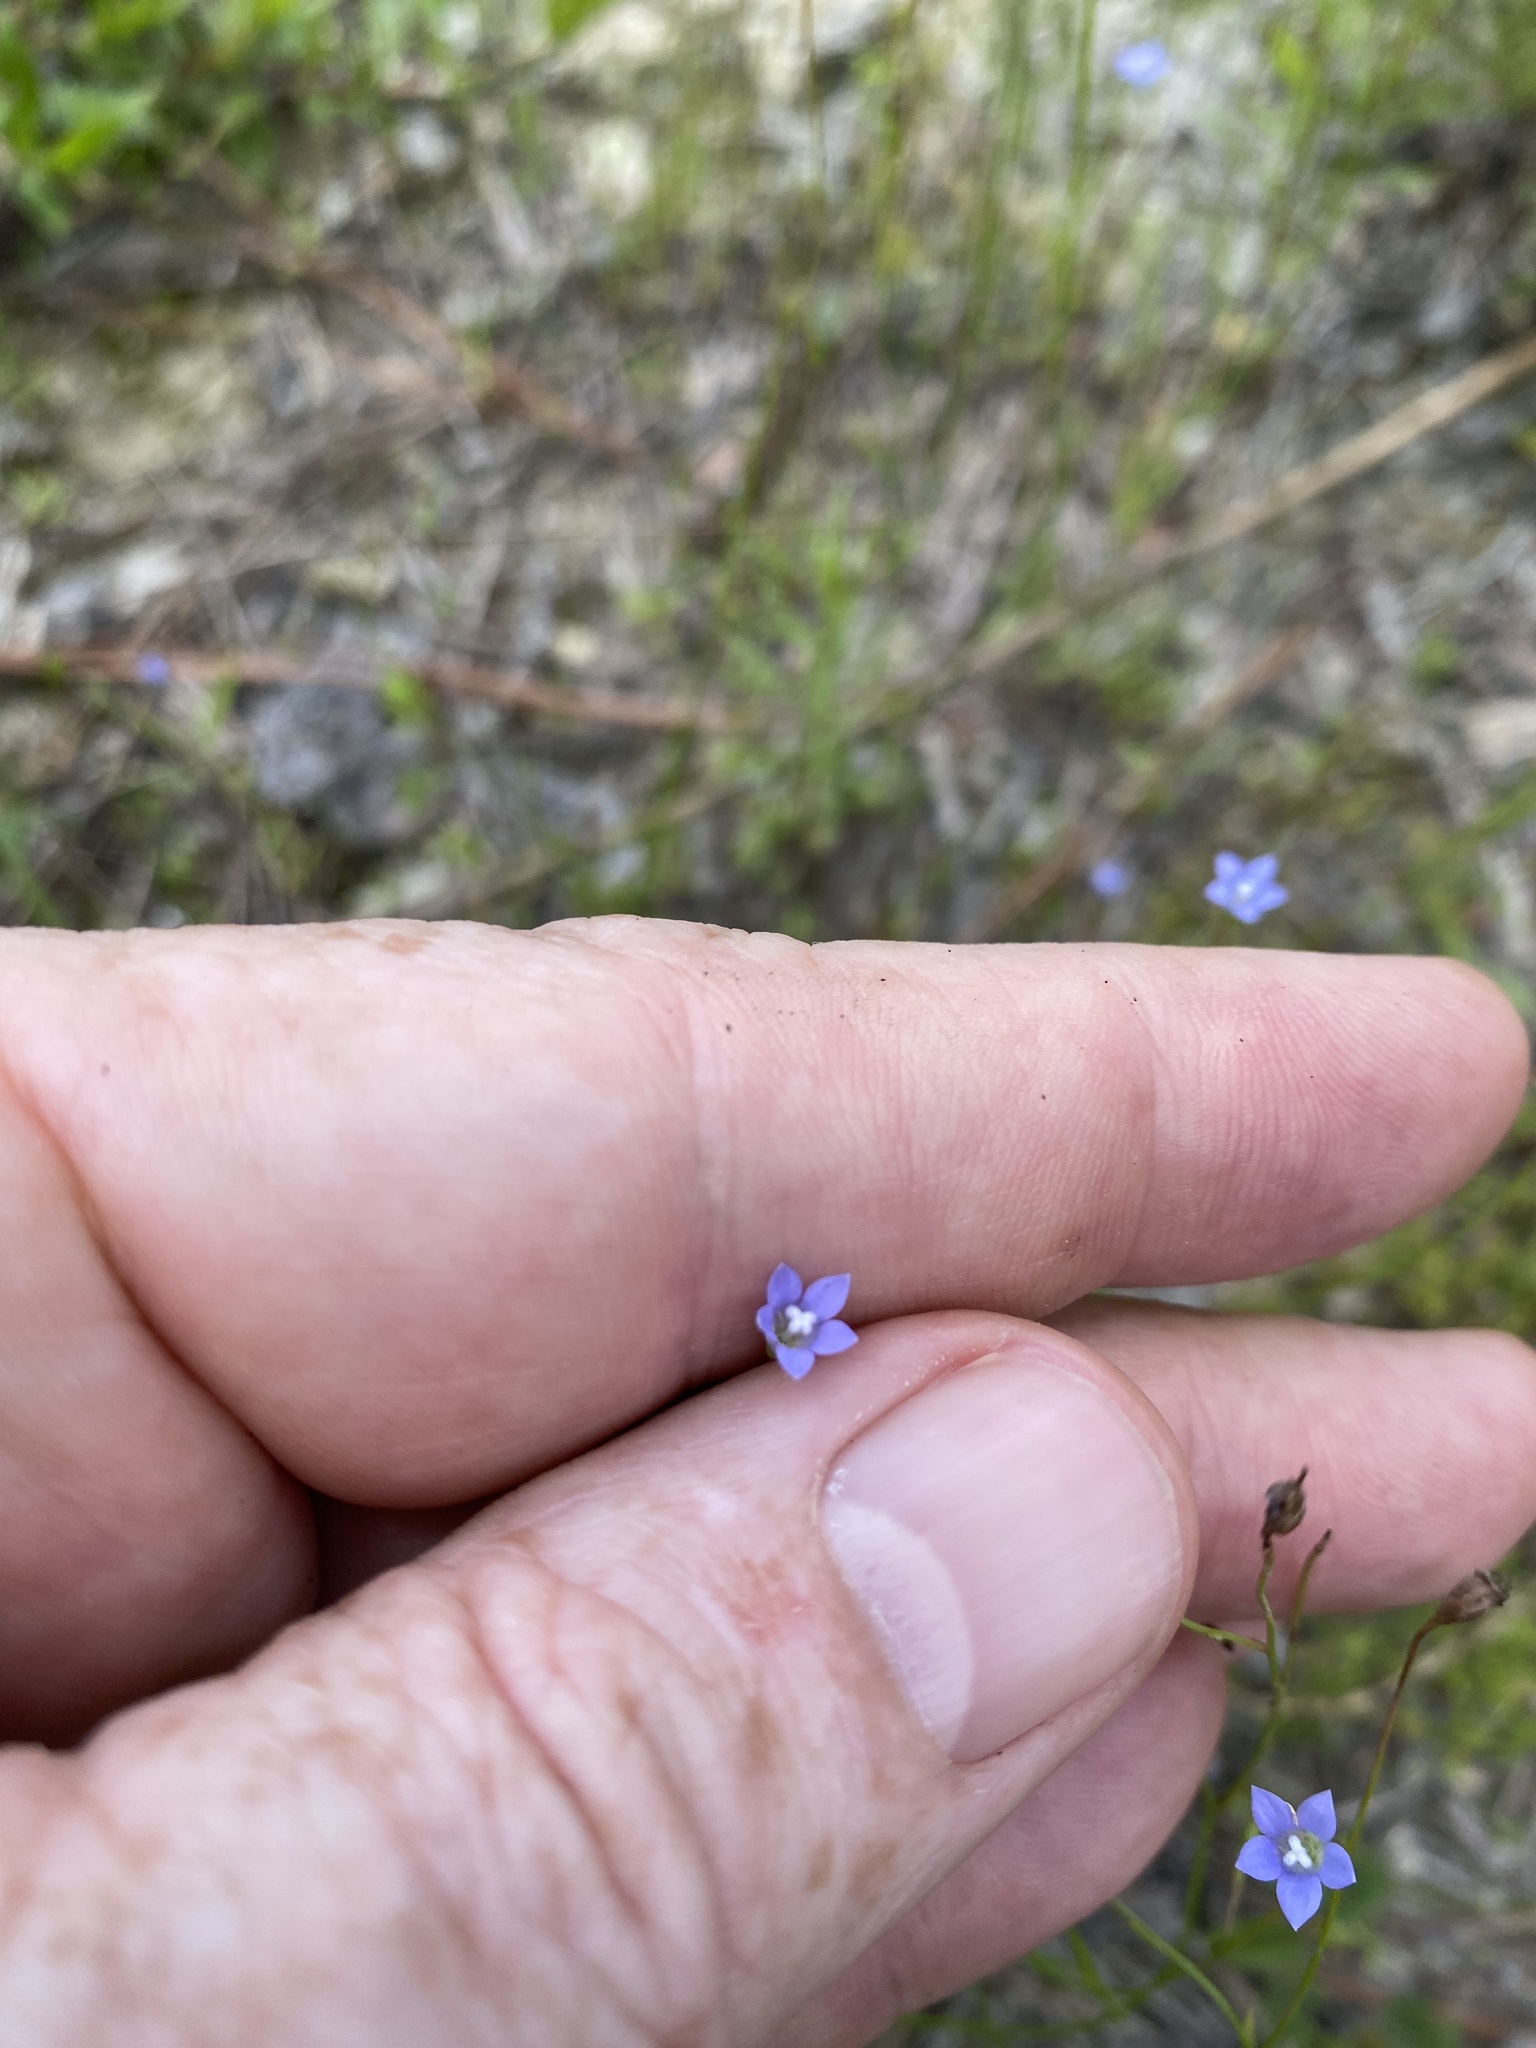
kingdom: Plantae
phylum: Tracheophyta
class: Magnoliopsida
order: Asterales
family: Campanulaceae
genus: Wahlenbergia
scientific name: Wahlenbergia marginata
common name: Southern rockbell
